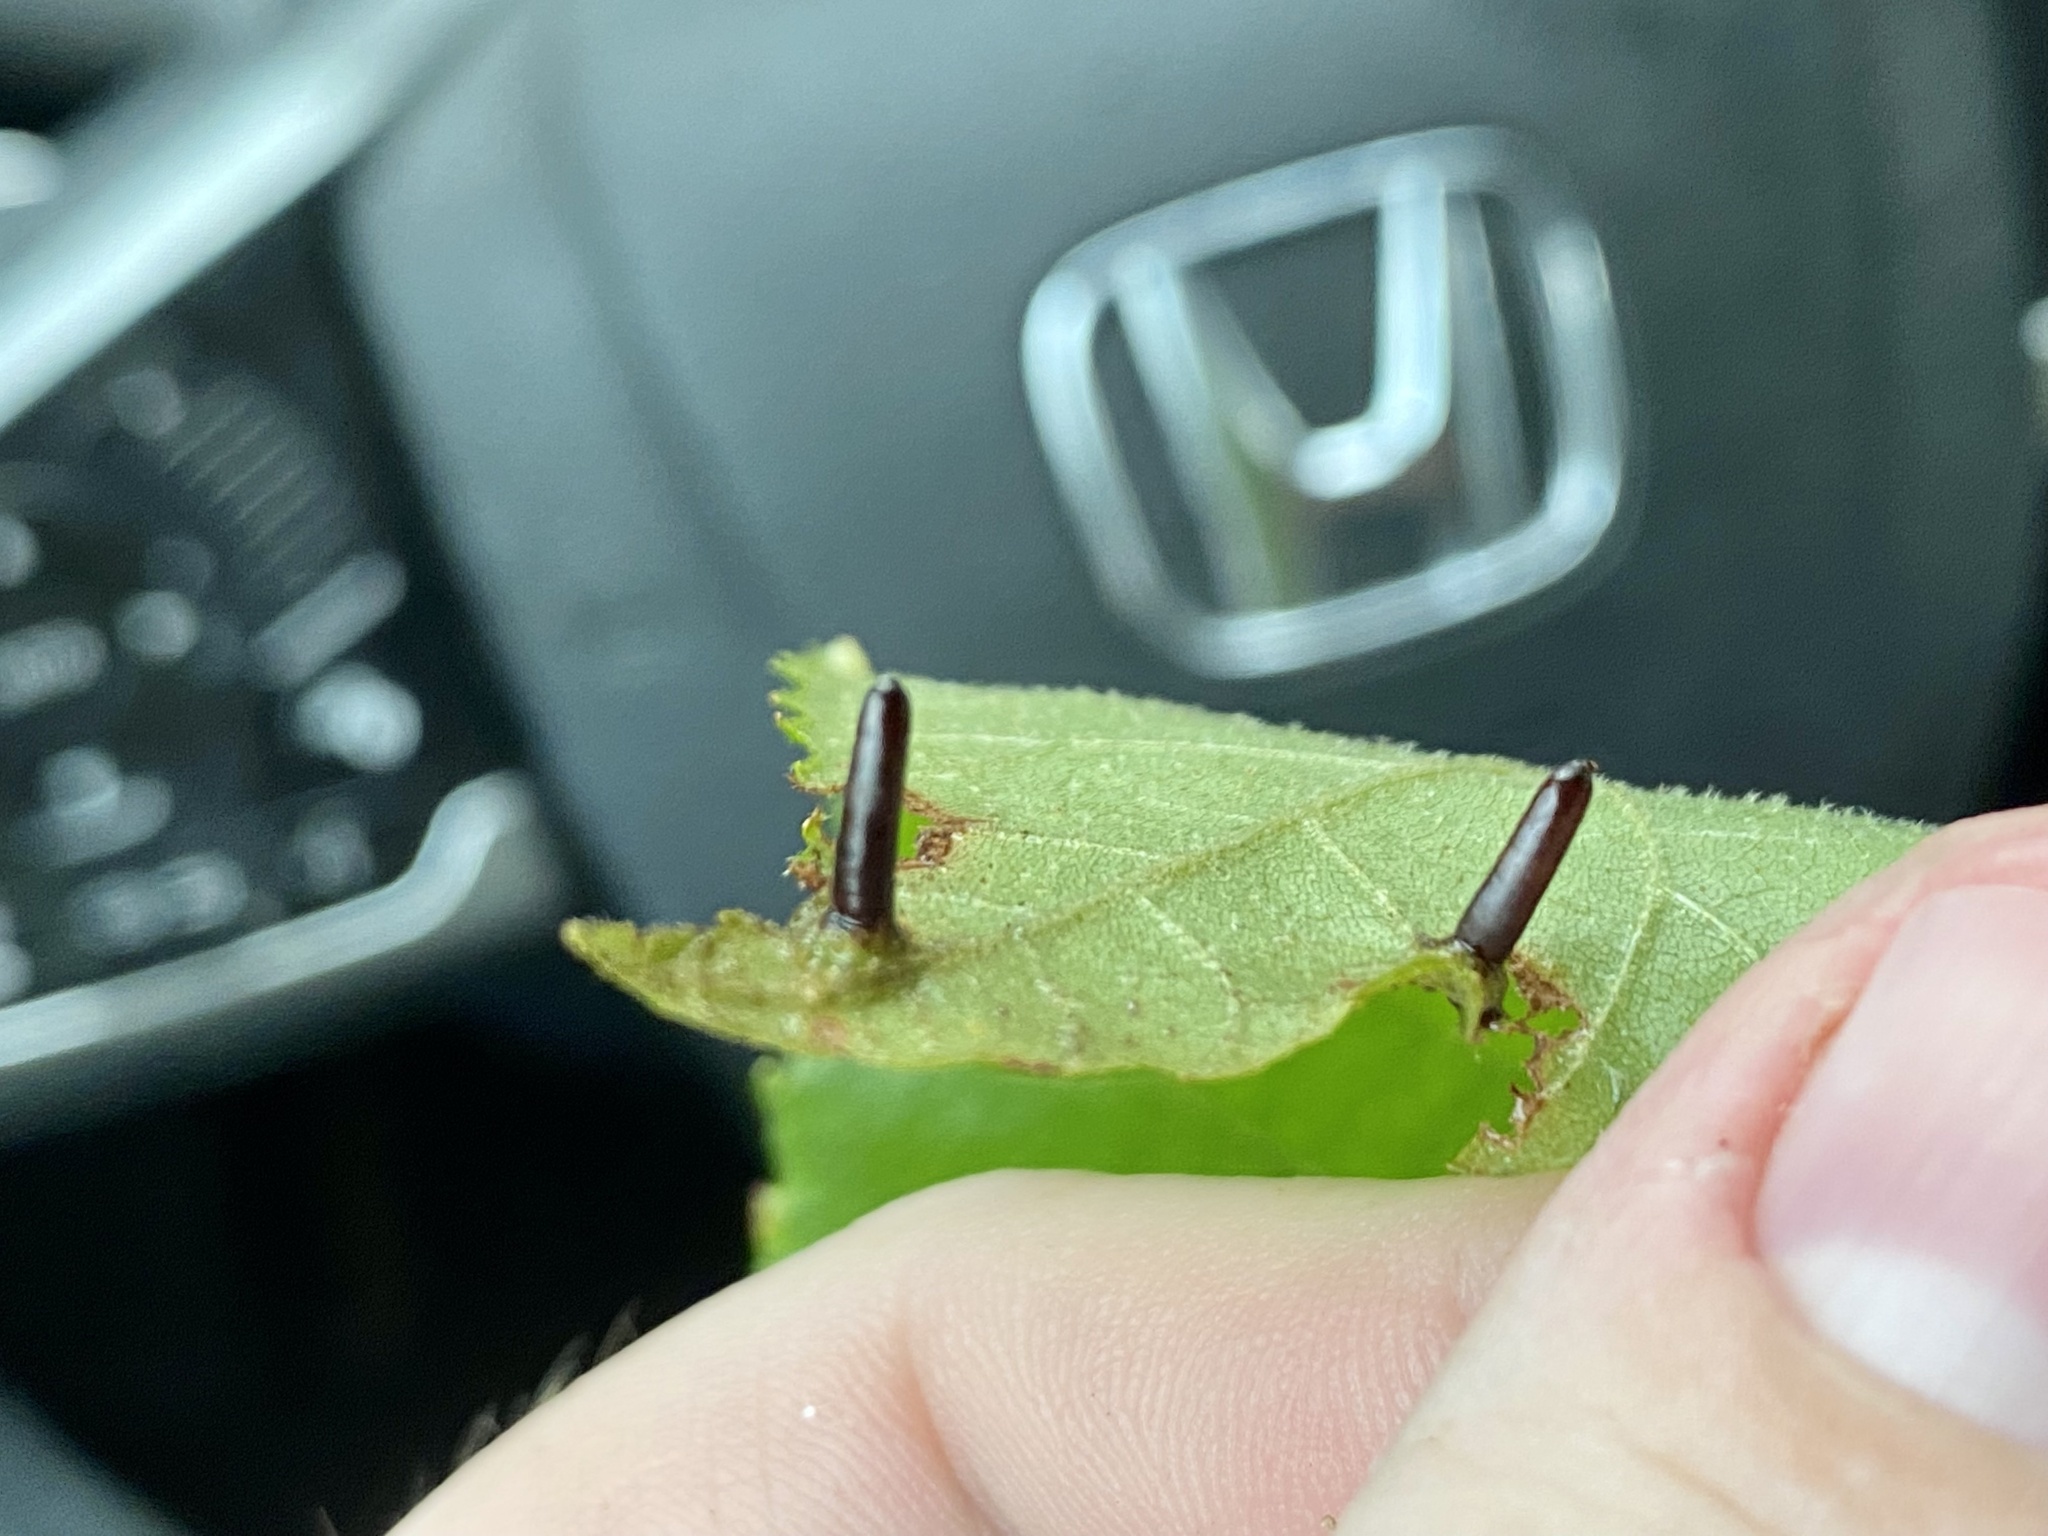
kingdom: Animalia
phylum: Arthropoda
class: Insecta
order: Diptera
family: Cecidomyiidae
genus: Caryomyia
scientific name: Caryomyia tubicola
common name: Hickory bullet gall midge
